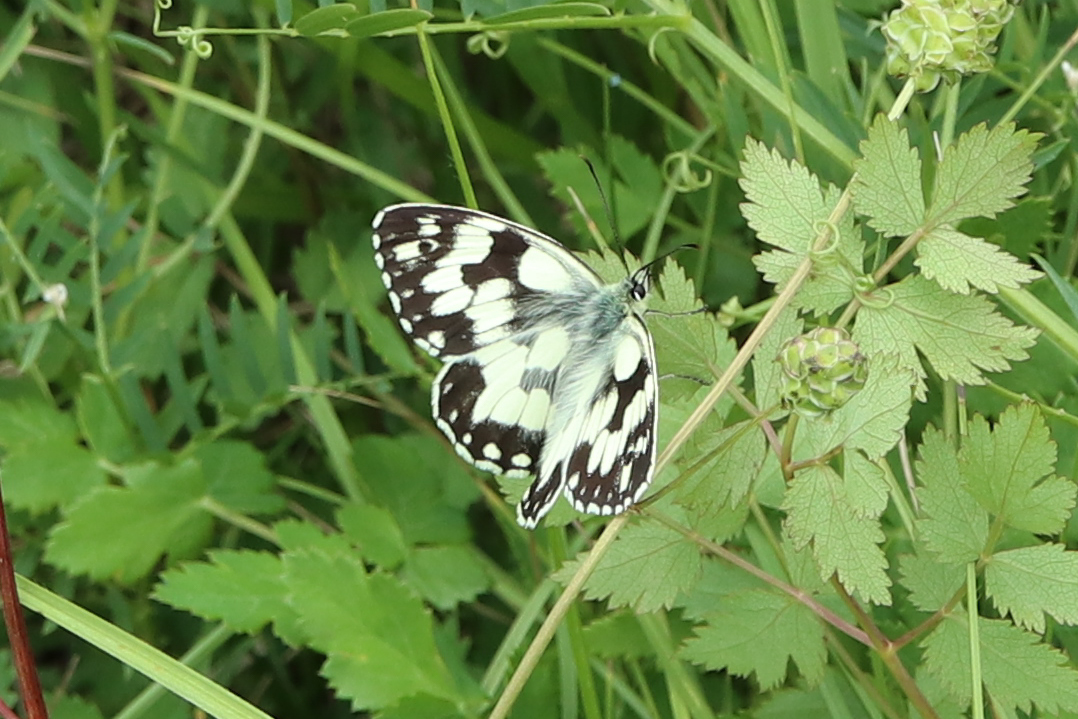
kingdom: Animalia
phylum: Arthropoda
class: Insecta
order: Lepidoptera
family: Nymphalidae
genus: Melanargia
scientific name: Melanargia galathea
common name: Marbled white
